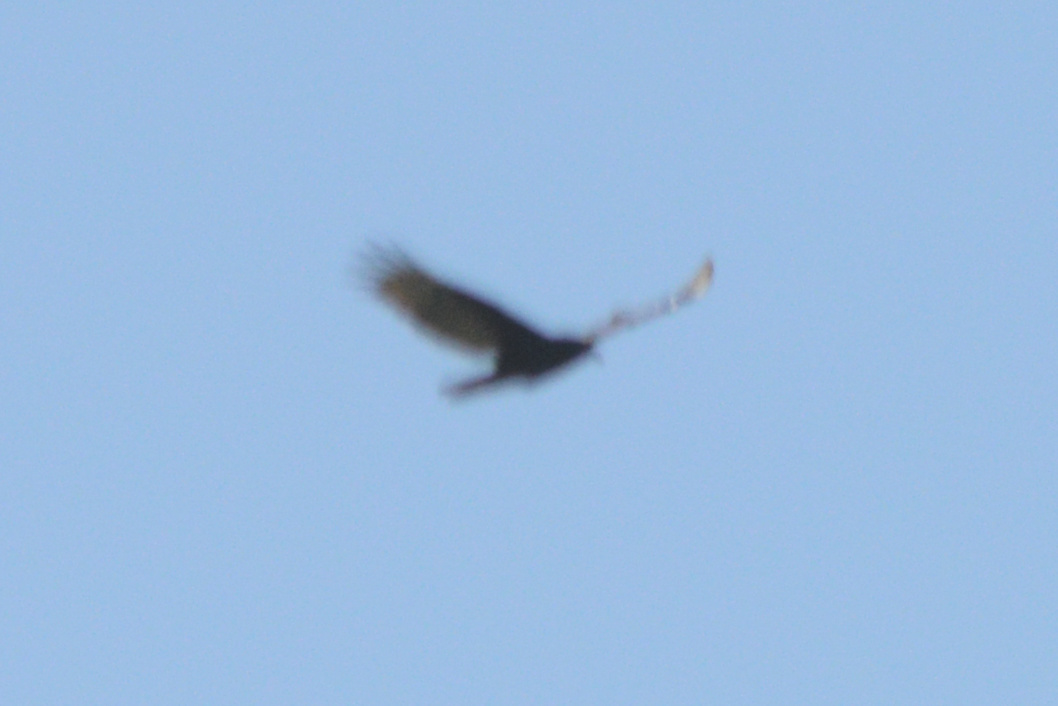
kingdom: Animalia
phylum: Chordata
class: Aves
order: Accipitriformes
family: Cathartidae
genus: Cathartes
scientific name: Cathartes aura
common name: Turkey vulture
